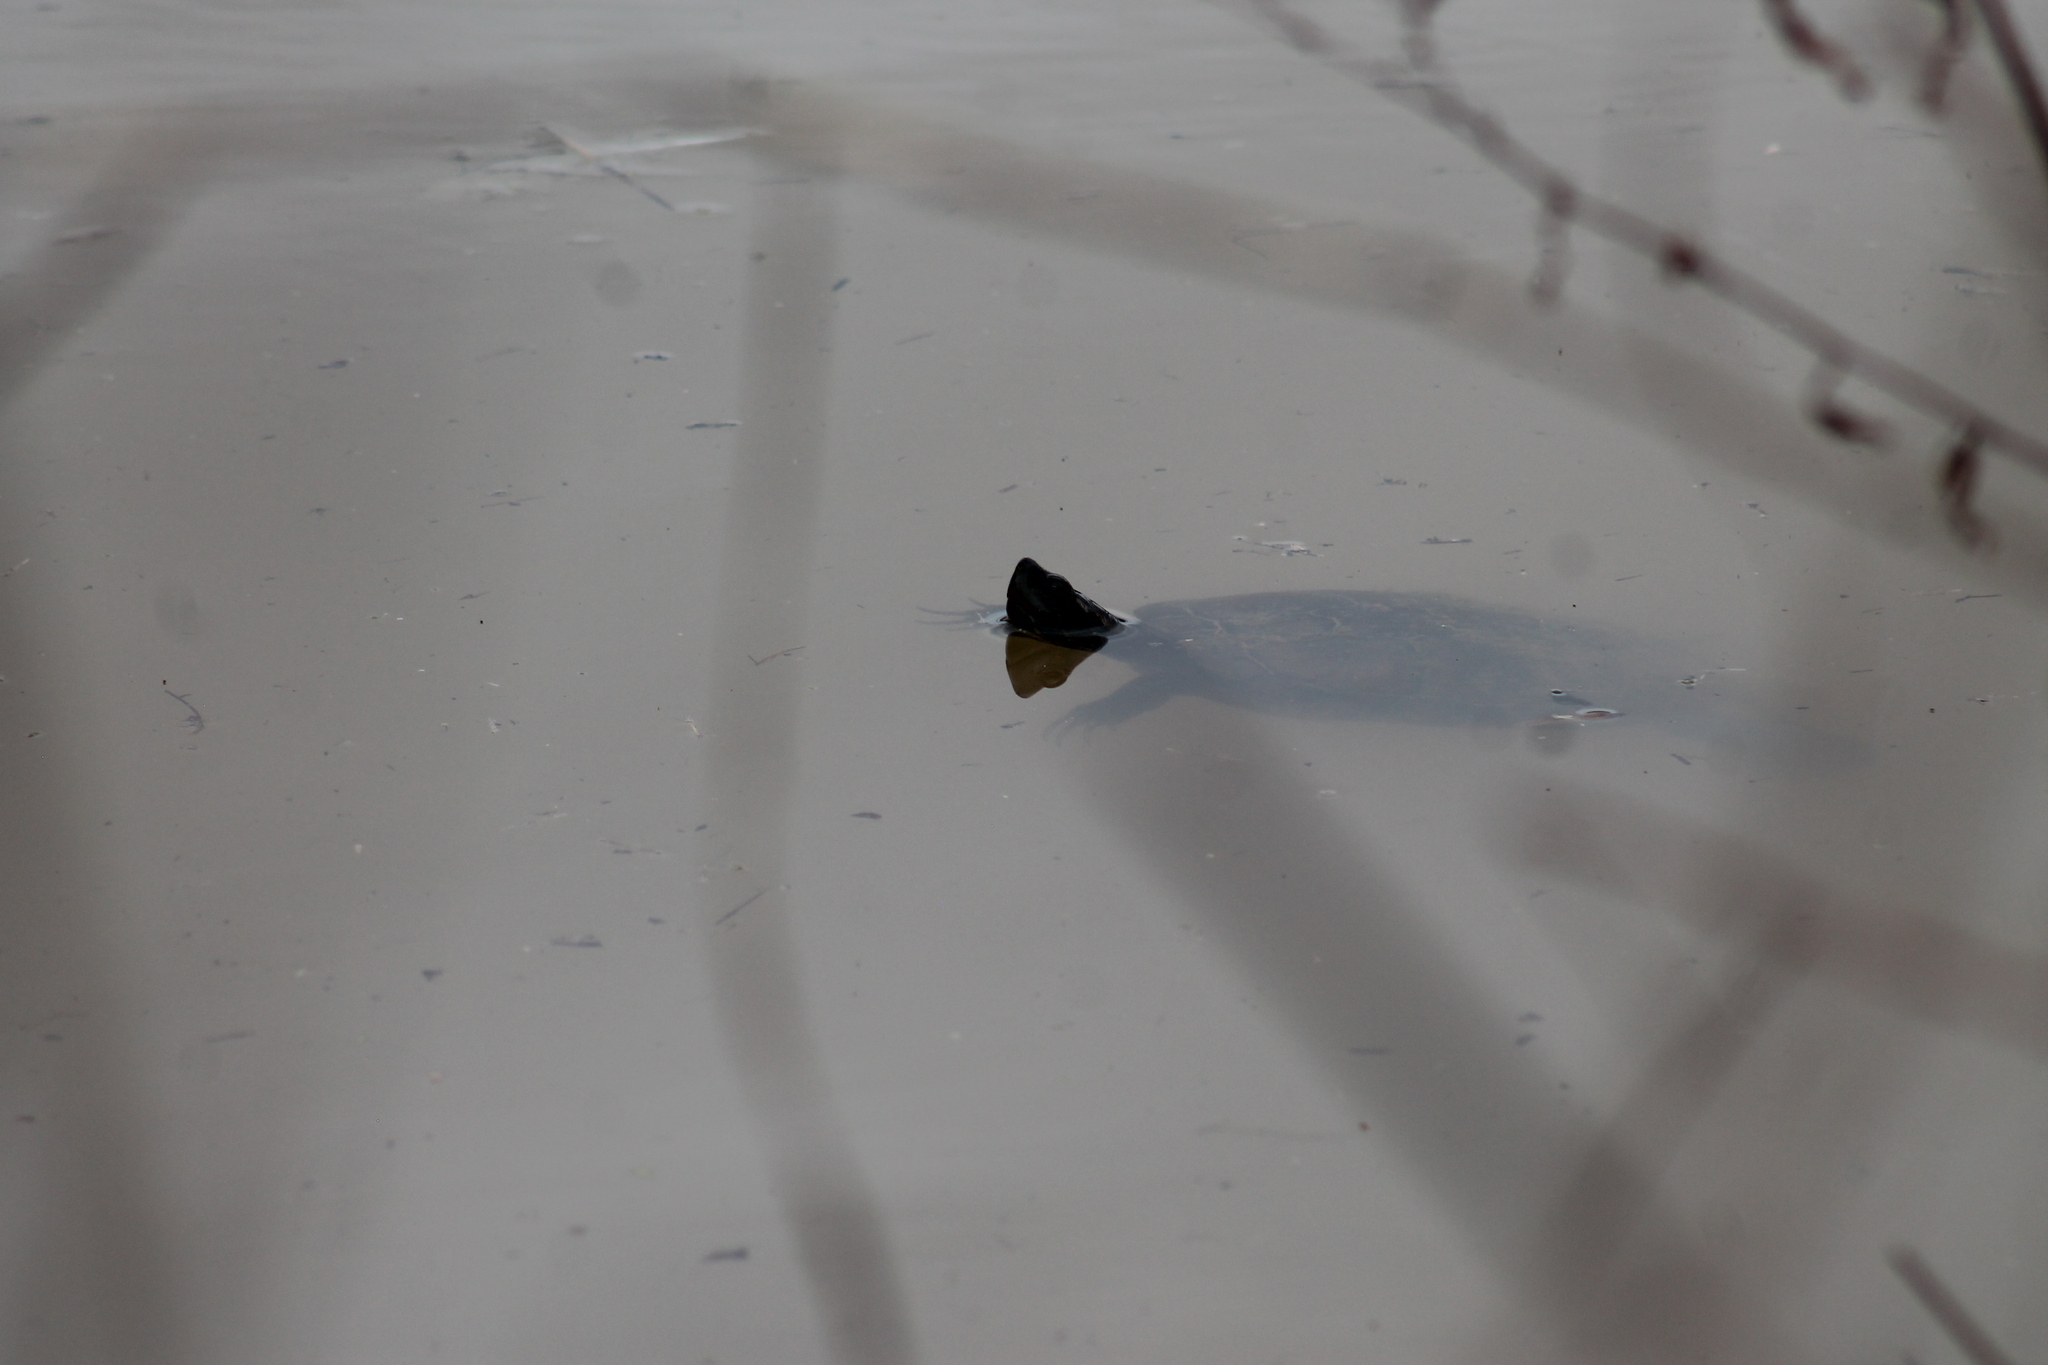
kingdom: Animalia
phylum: Chordata
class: Testudines
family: Emydidae
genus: Trachemys
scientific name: Trachemys scripta
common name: Slider
